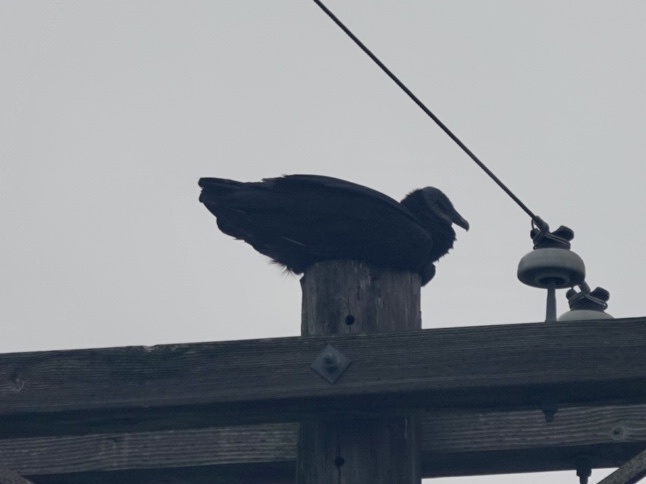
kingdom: Animalia
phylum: Chordata
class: Aves
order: Accipitriformes
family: Cathartidae
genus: Coragyps
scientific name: Coragyps atratus
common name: Black vulture
